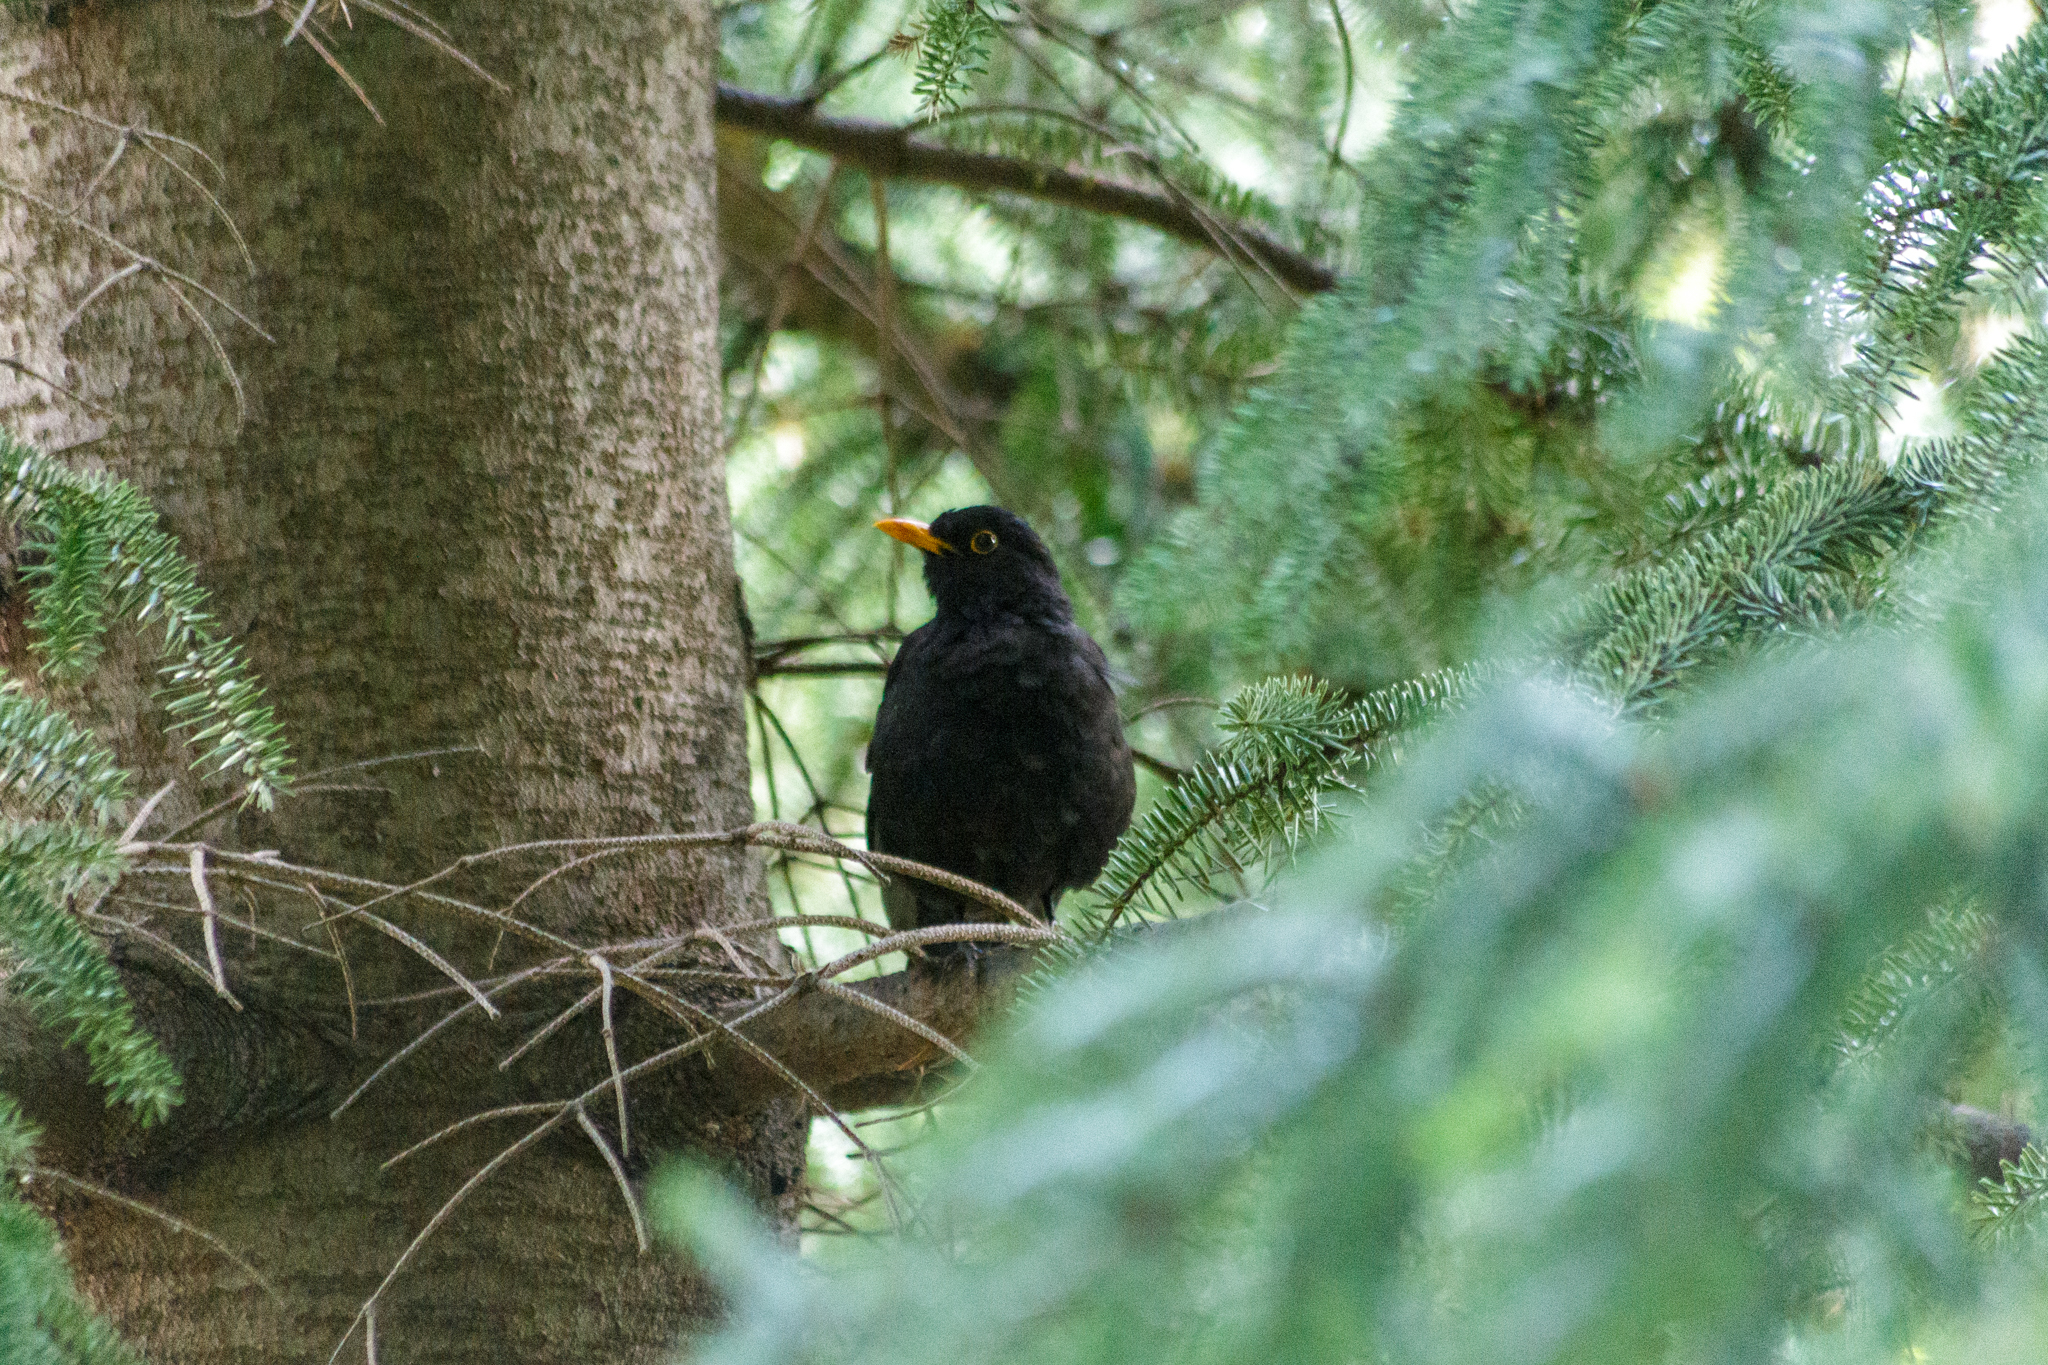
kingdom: Animalia
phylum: Chordata
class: Aves
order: Passeriformes
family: Turdidae
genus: Turdus
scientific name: Turdus merula
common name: Common blackbird
